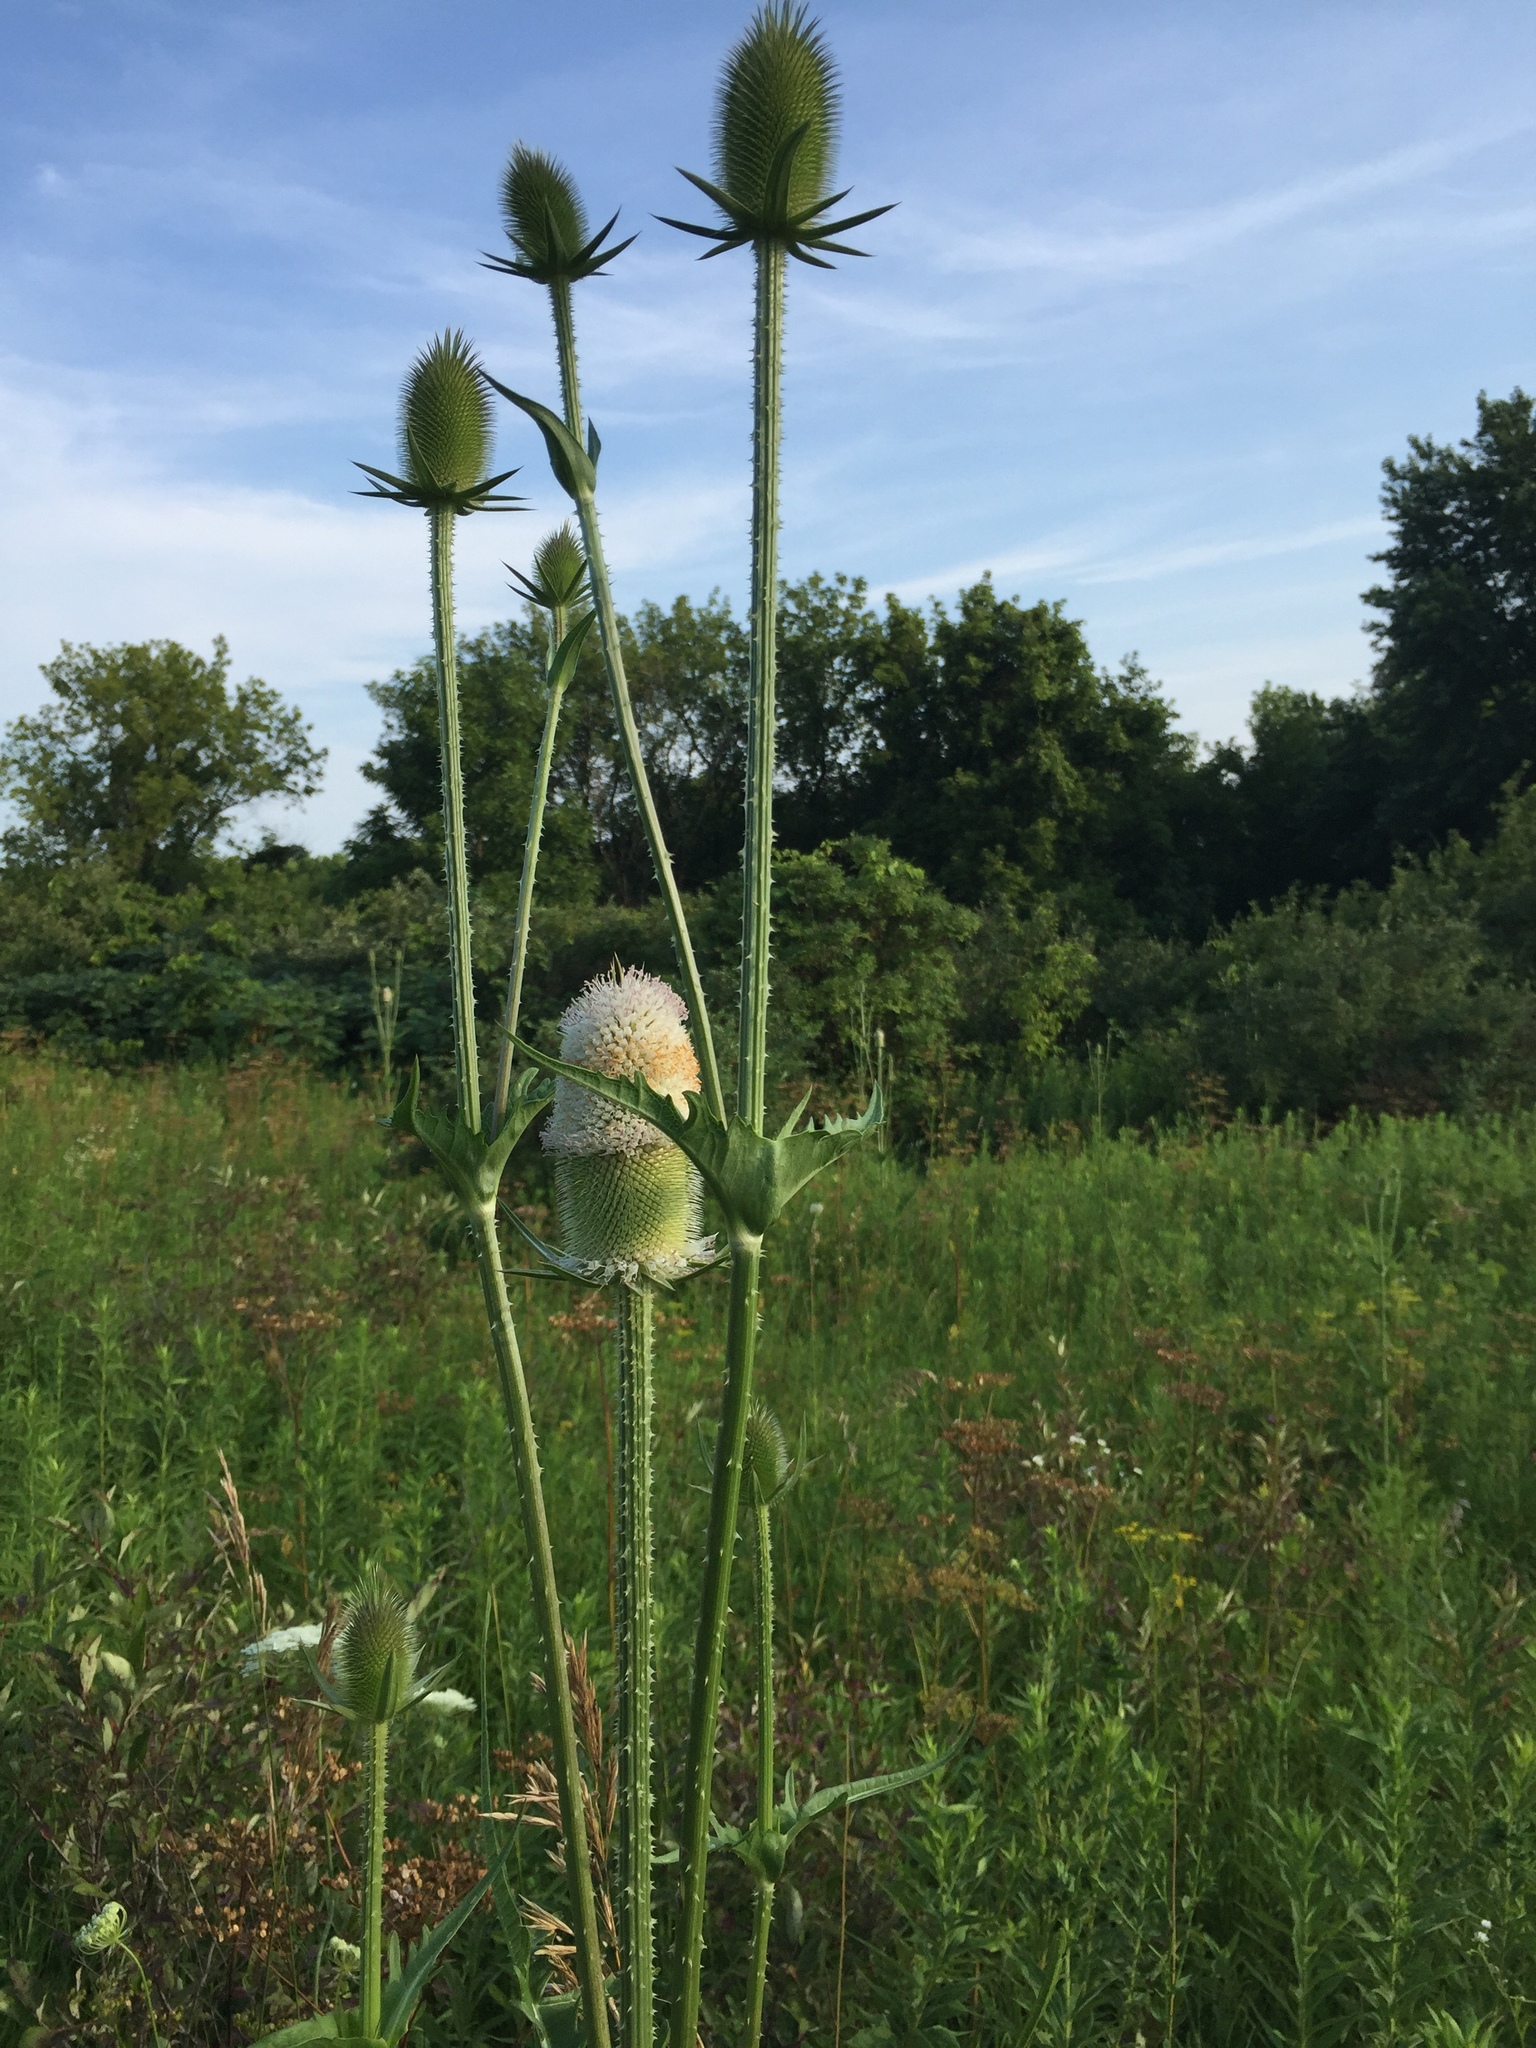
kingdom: Plantae
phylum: Tracheophyta
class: Magnoliopsida
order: Dipsacales
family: Caprifoliaceae
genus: Dipsacus
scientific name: Dipsacus laciniatus
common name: Cut-leaved teasel
